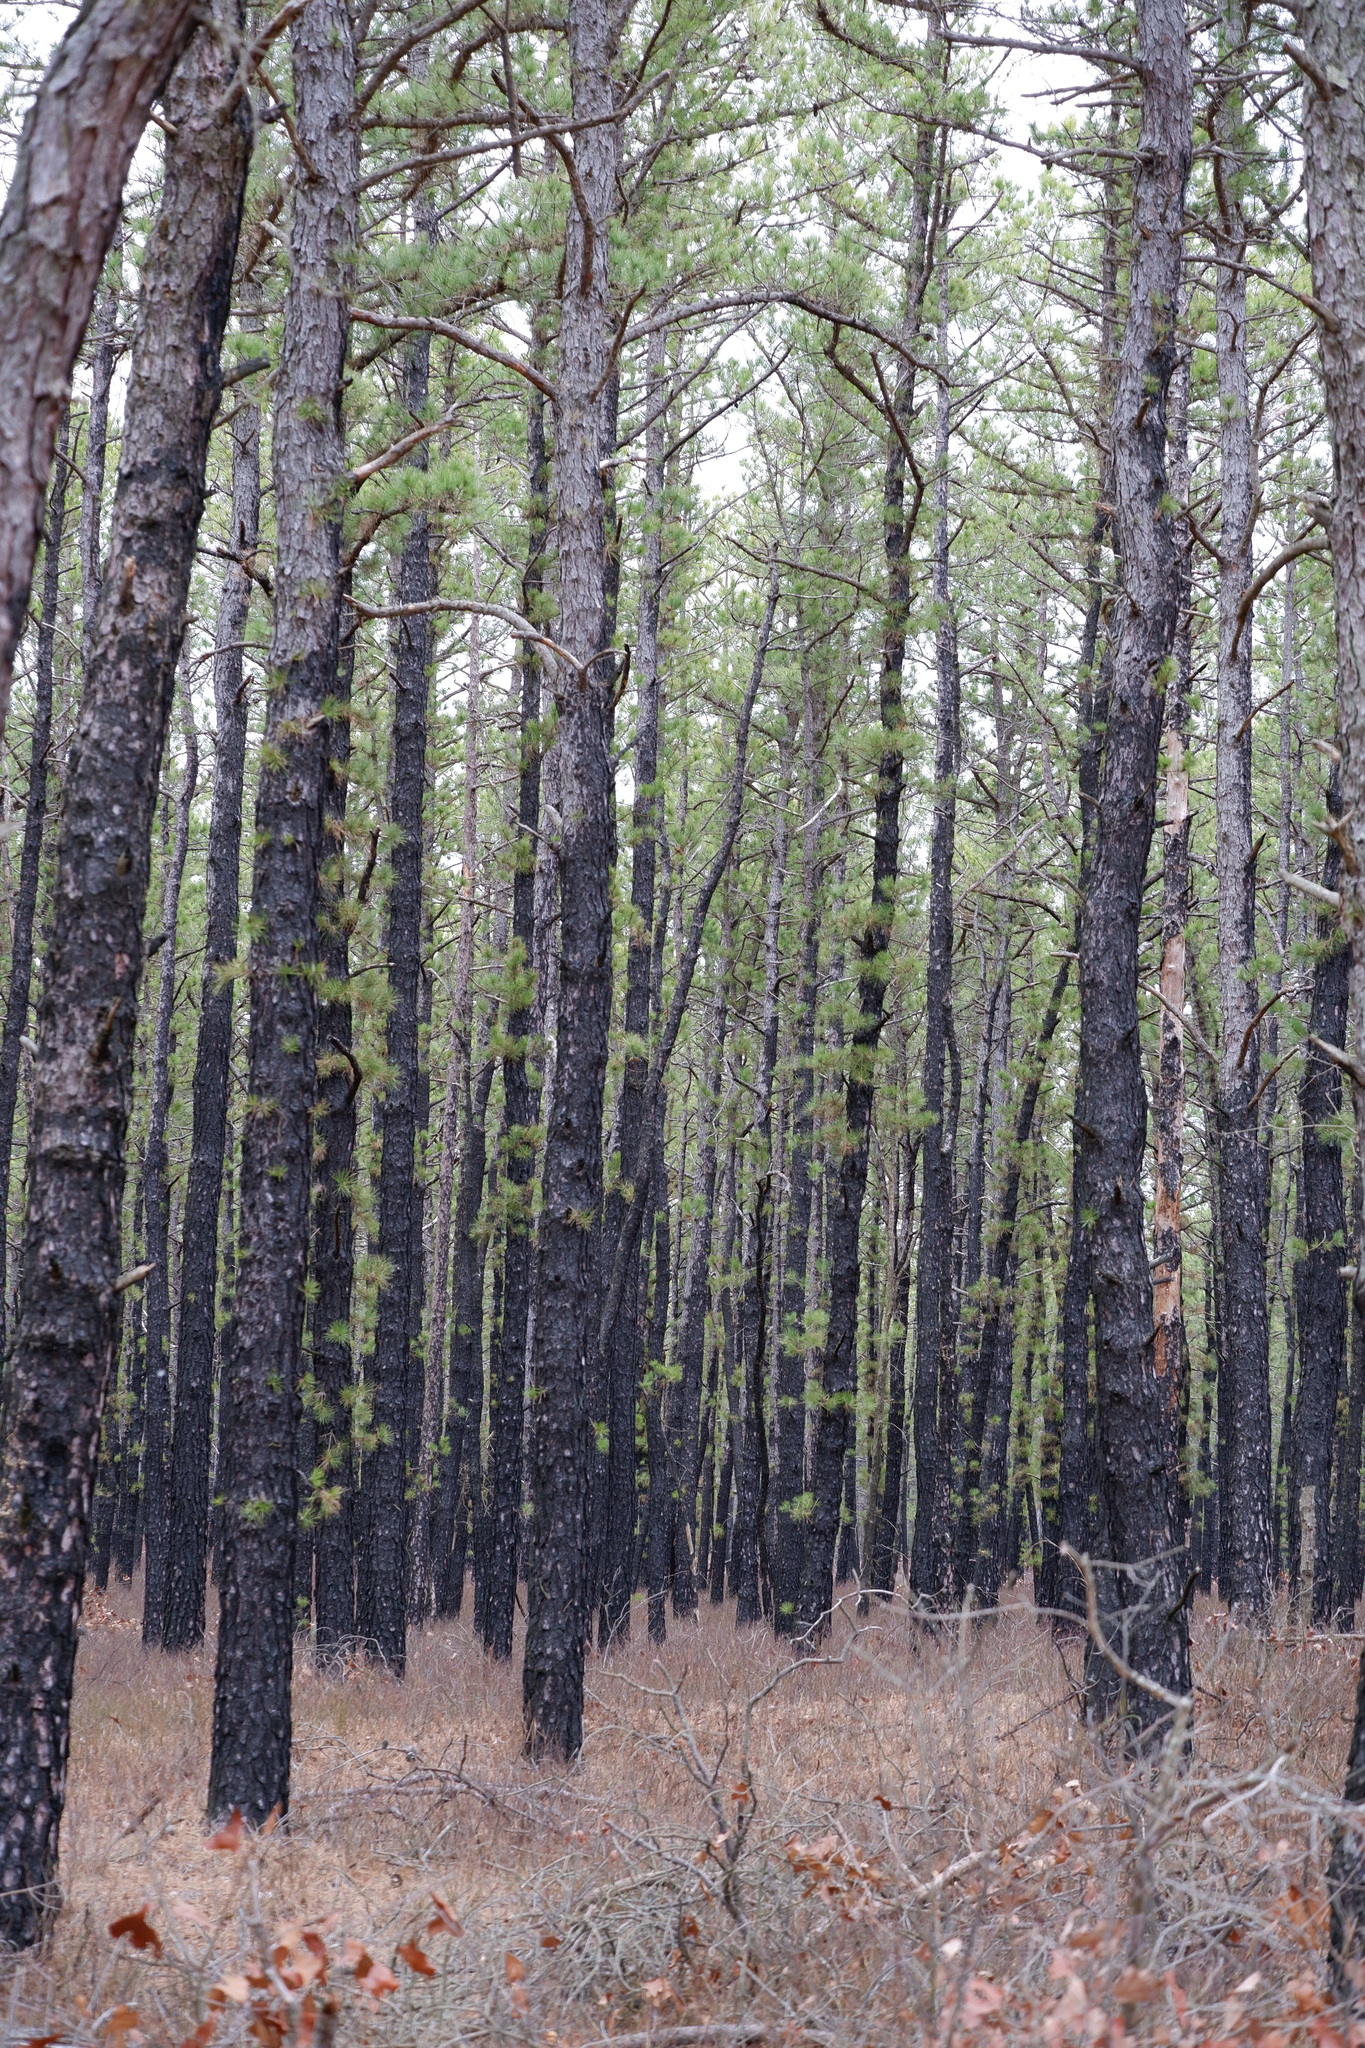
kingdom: Plantae
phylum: Tracheophyta
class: Pinopsida
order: Pinales
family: Pinaceae
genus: Pinus
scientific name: Pinus rigida
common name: Pitch pine
